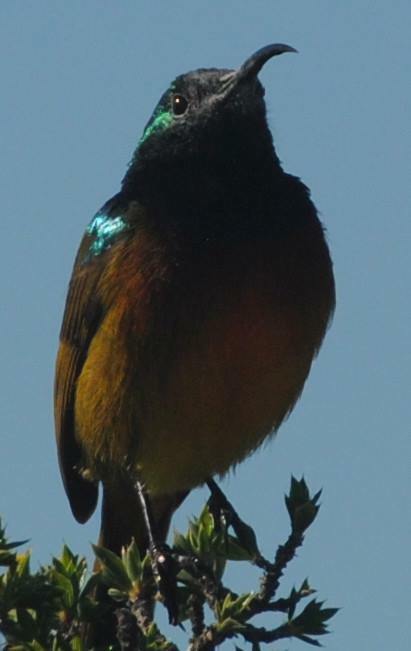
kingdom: Animalia
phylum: Chordata
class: Aves
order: Passeriformes
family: Nectariniidae
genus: Anthobaphes
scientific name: Anthobaphes violacea
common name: Orange-breasted sunbird
